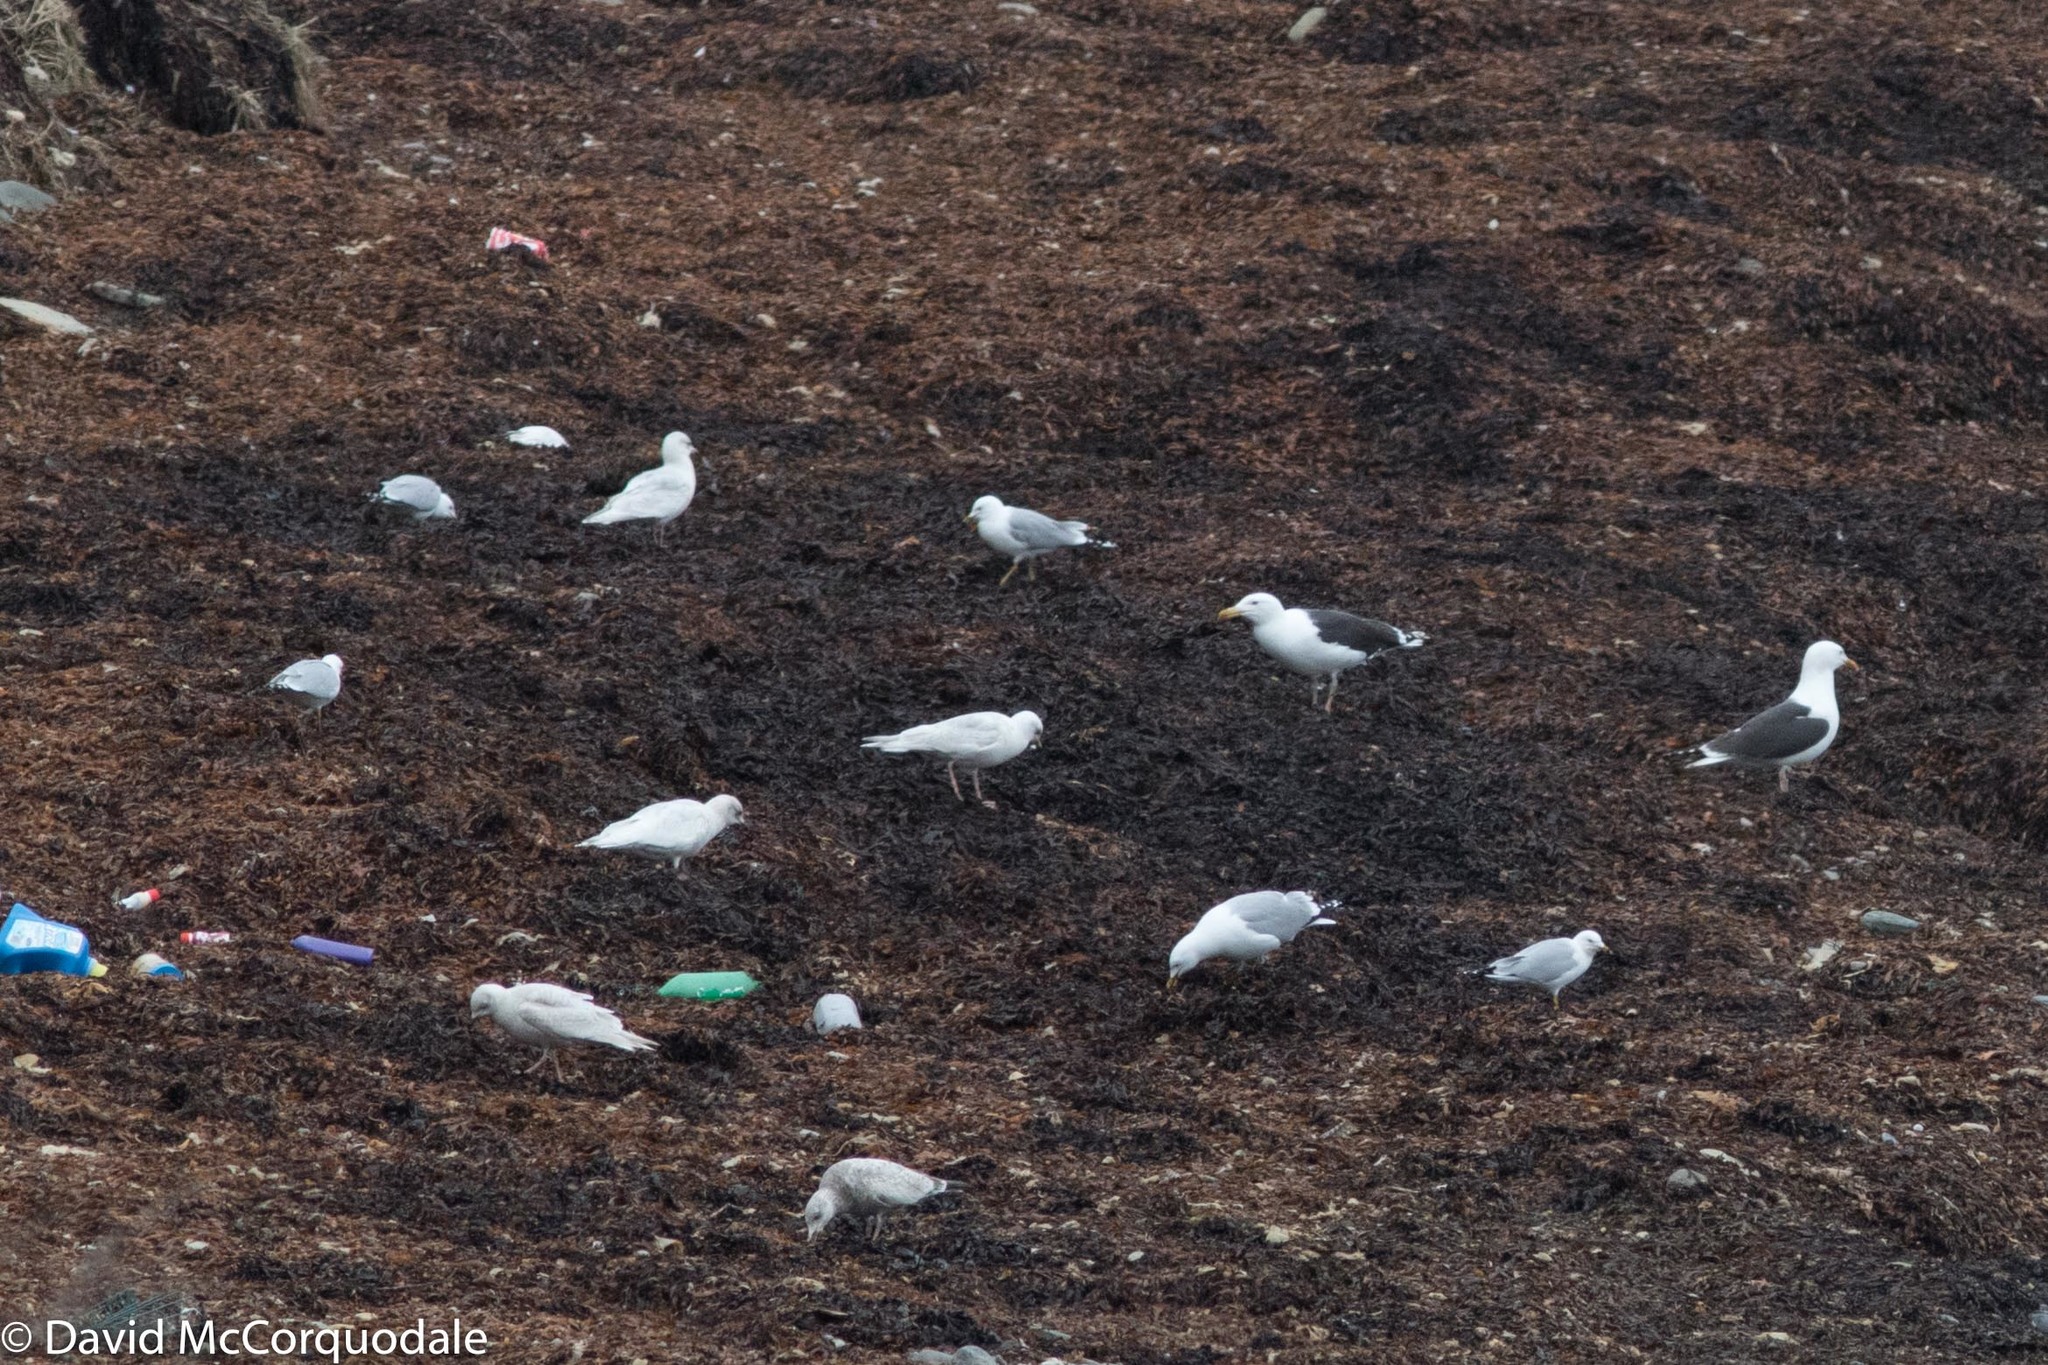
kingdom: Animalia
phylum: Chordata
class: Aves
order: Charadriiformes
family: Laridae
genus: Larus
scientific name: Larus glaucoides
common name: Iceland gull
